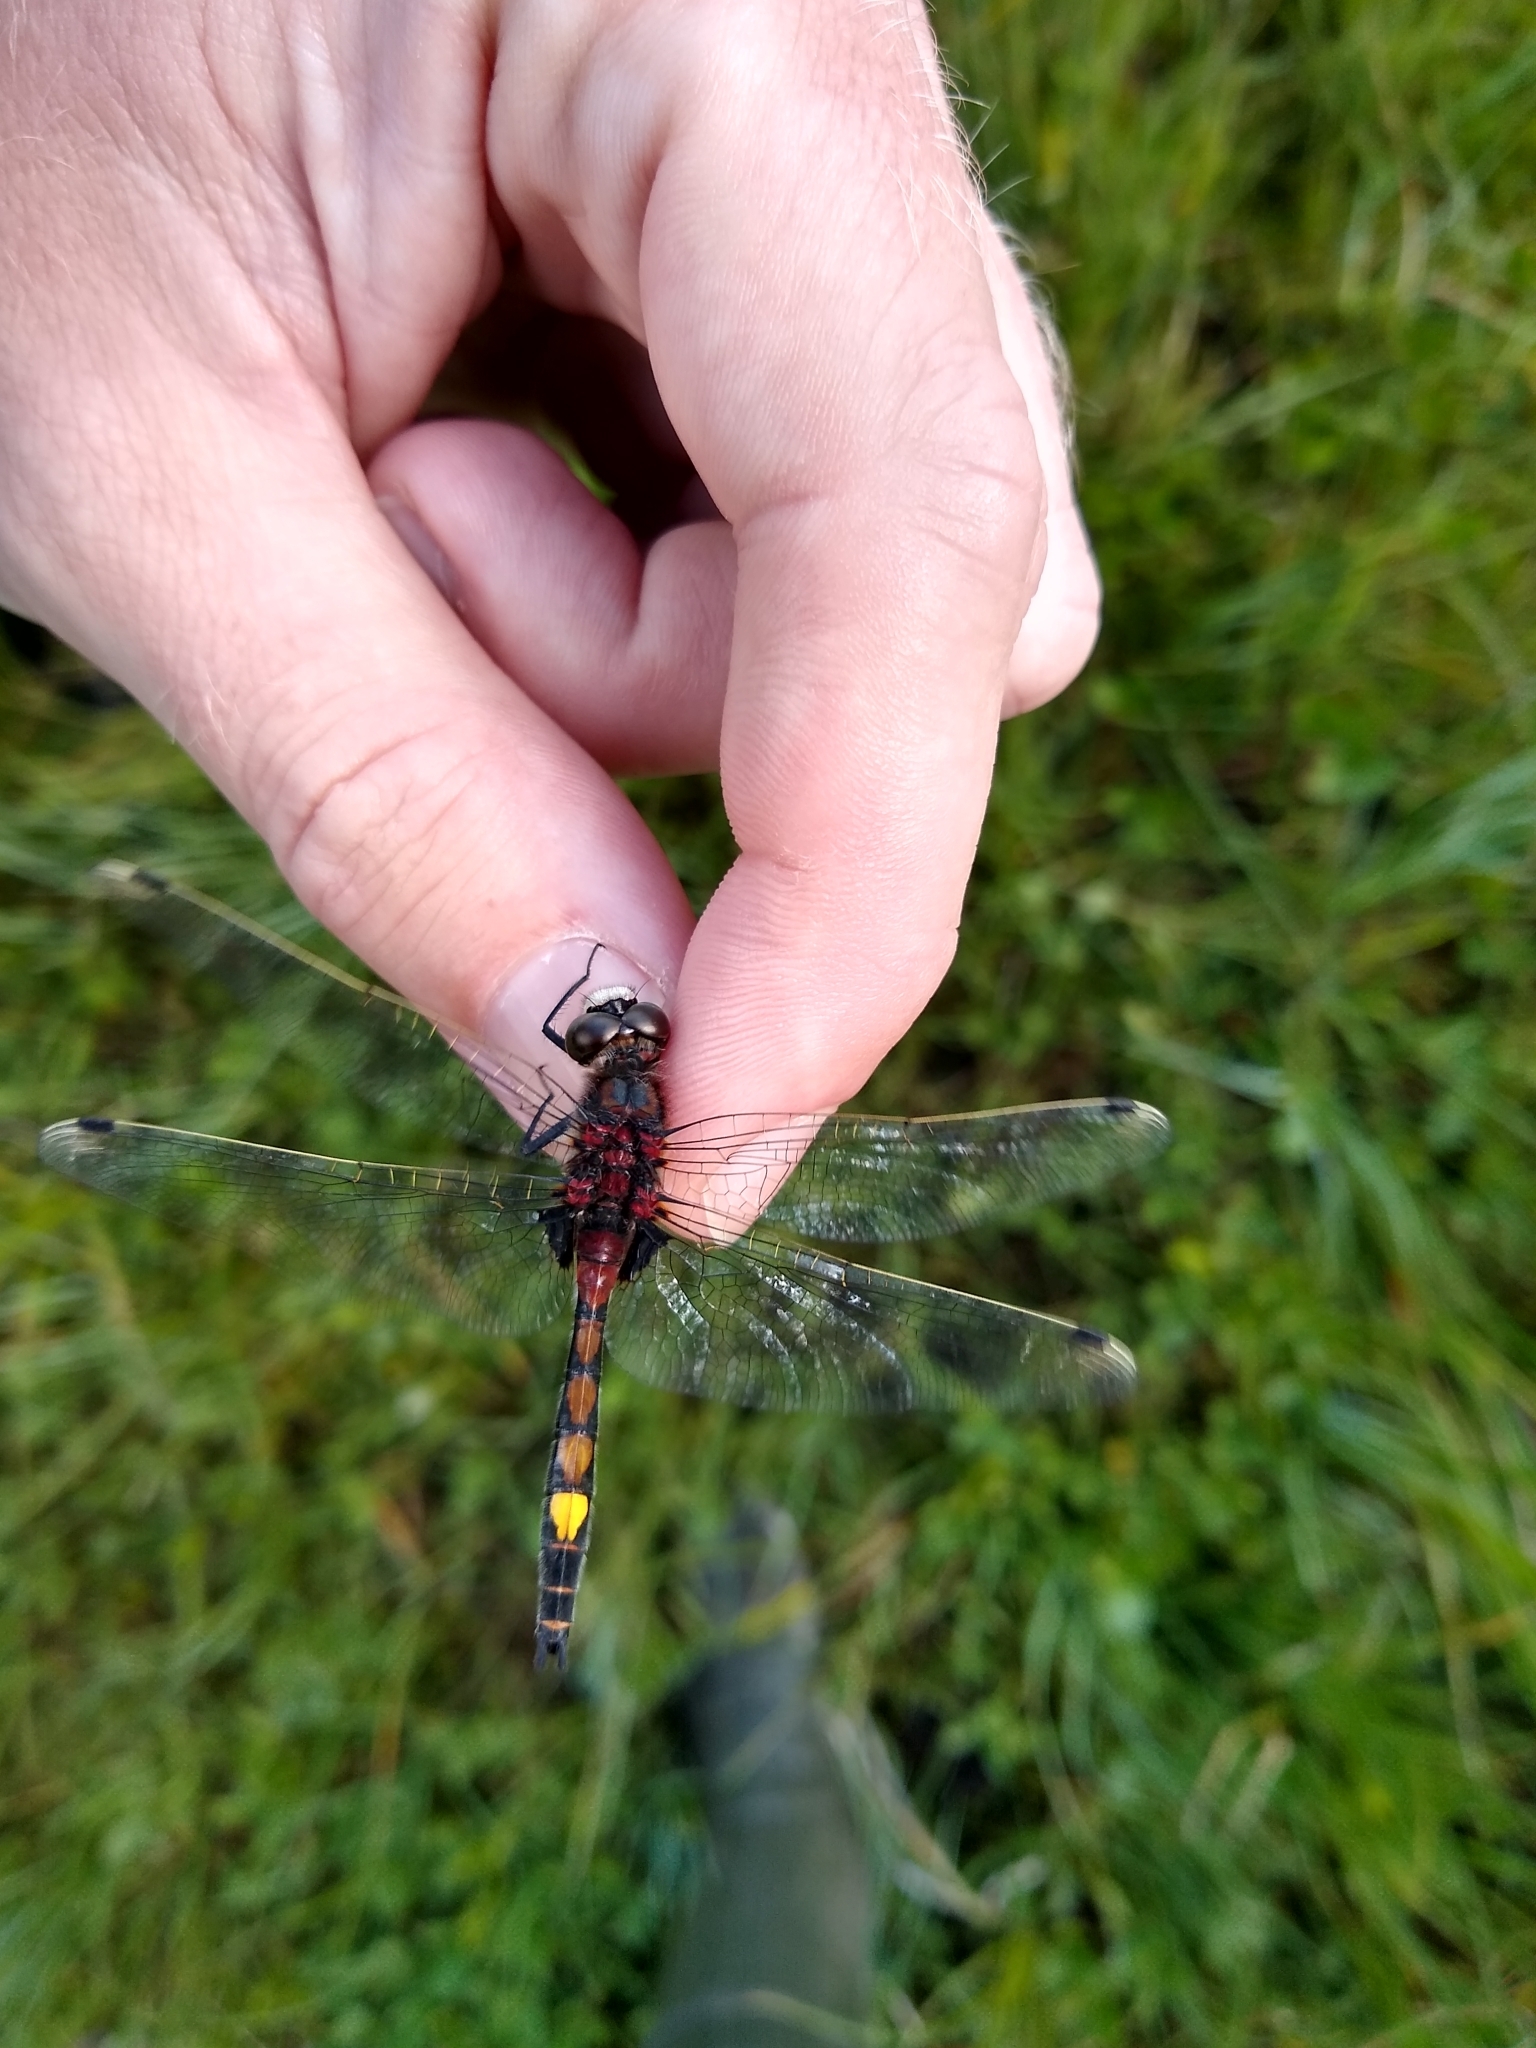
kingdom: Animalia
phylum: Arthropoda
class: Insecta
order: Odonata
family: Libellulidae
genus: Leucorrhinia
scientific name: Leucorrhinia pectoralis
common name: Yellow-spotted whiteface
